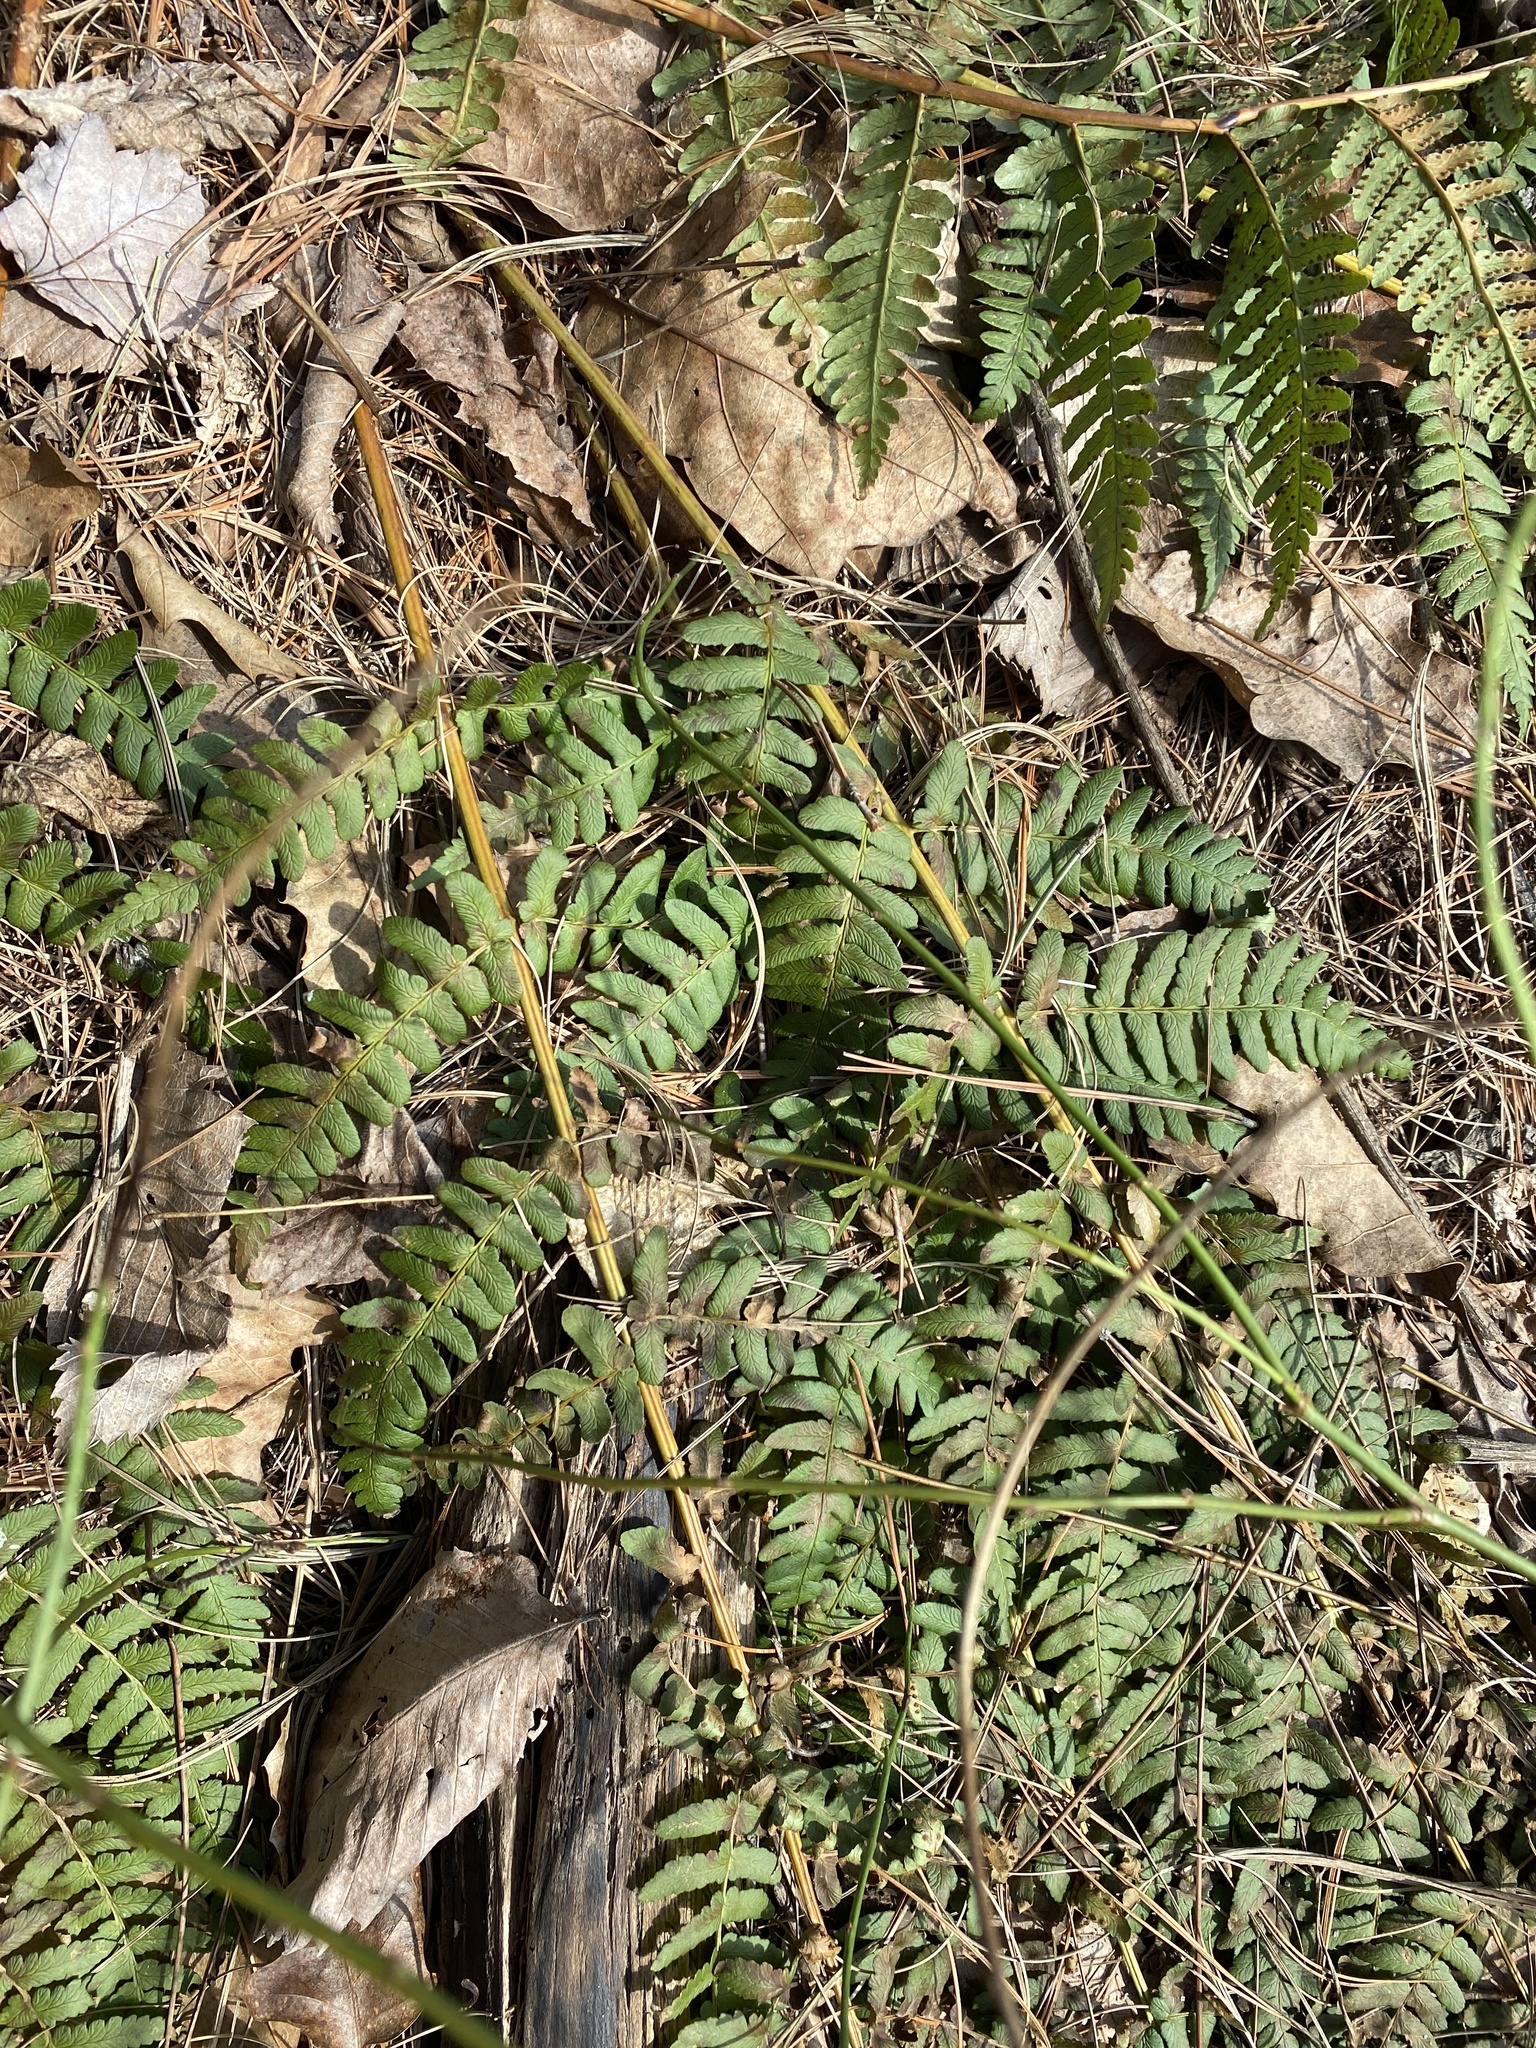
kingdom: Plantae
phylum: Tracheophyta
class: Polypodiopsida
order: Polypodiales
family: Dryopteridaceae
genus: Dryopteris
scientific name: Dryopteris marginalis
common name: Marginal wood fern
